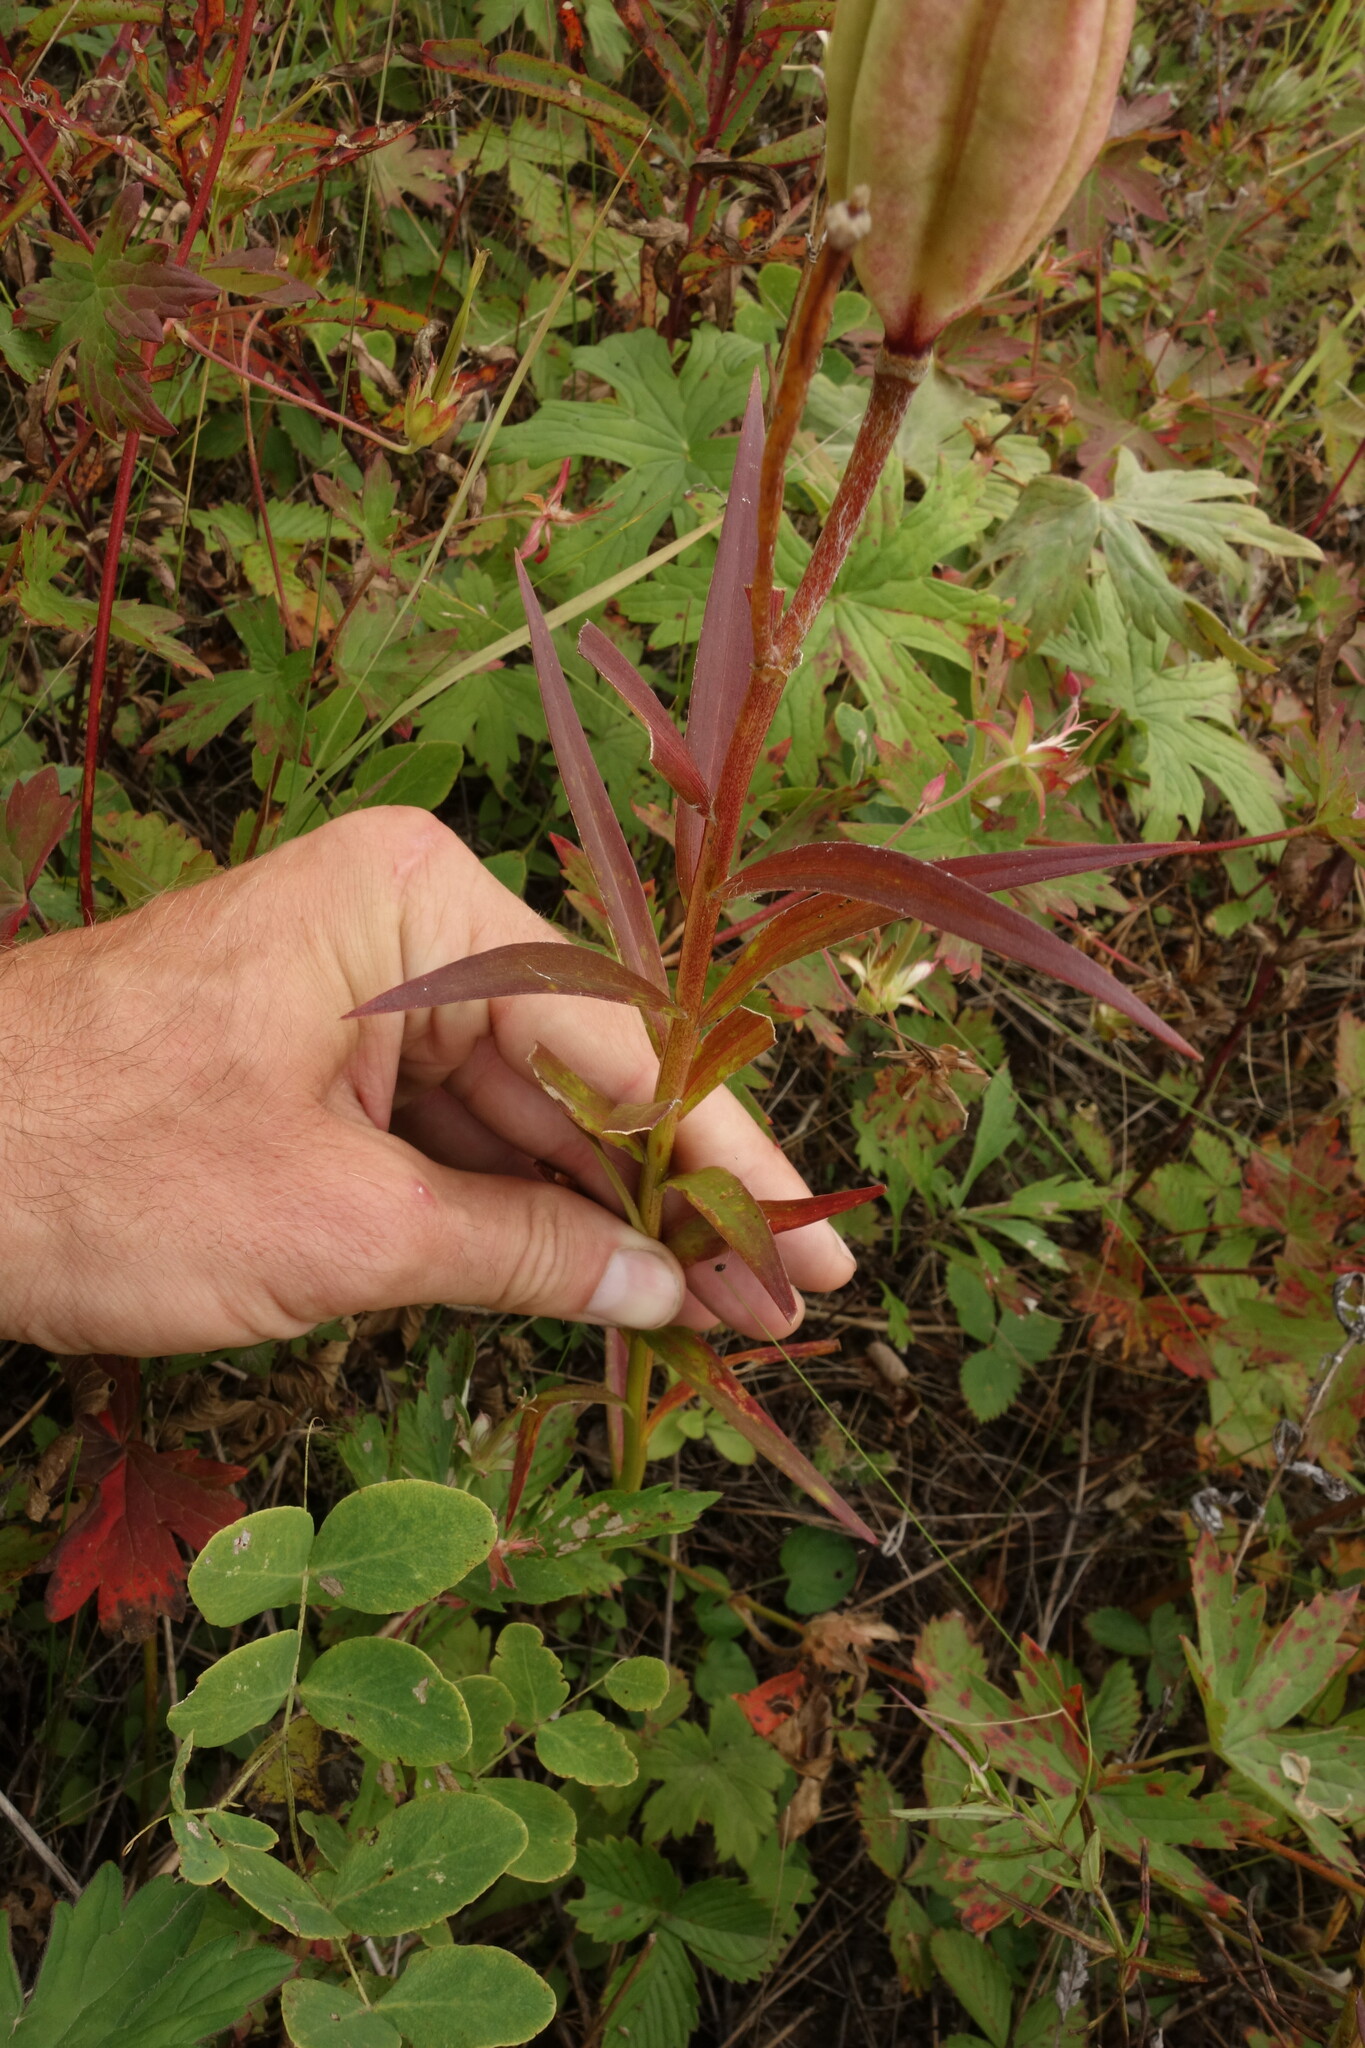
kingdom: Plantae
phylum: Tracheophyta
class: Liliopsida
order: Liliales
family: Liliaceae
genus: Lilium
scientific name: Lilium pensylvanicum
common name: Candlestick lily
